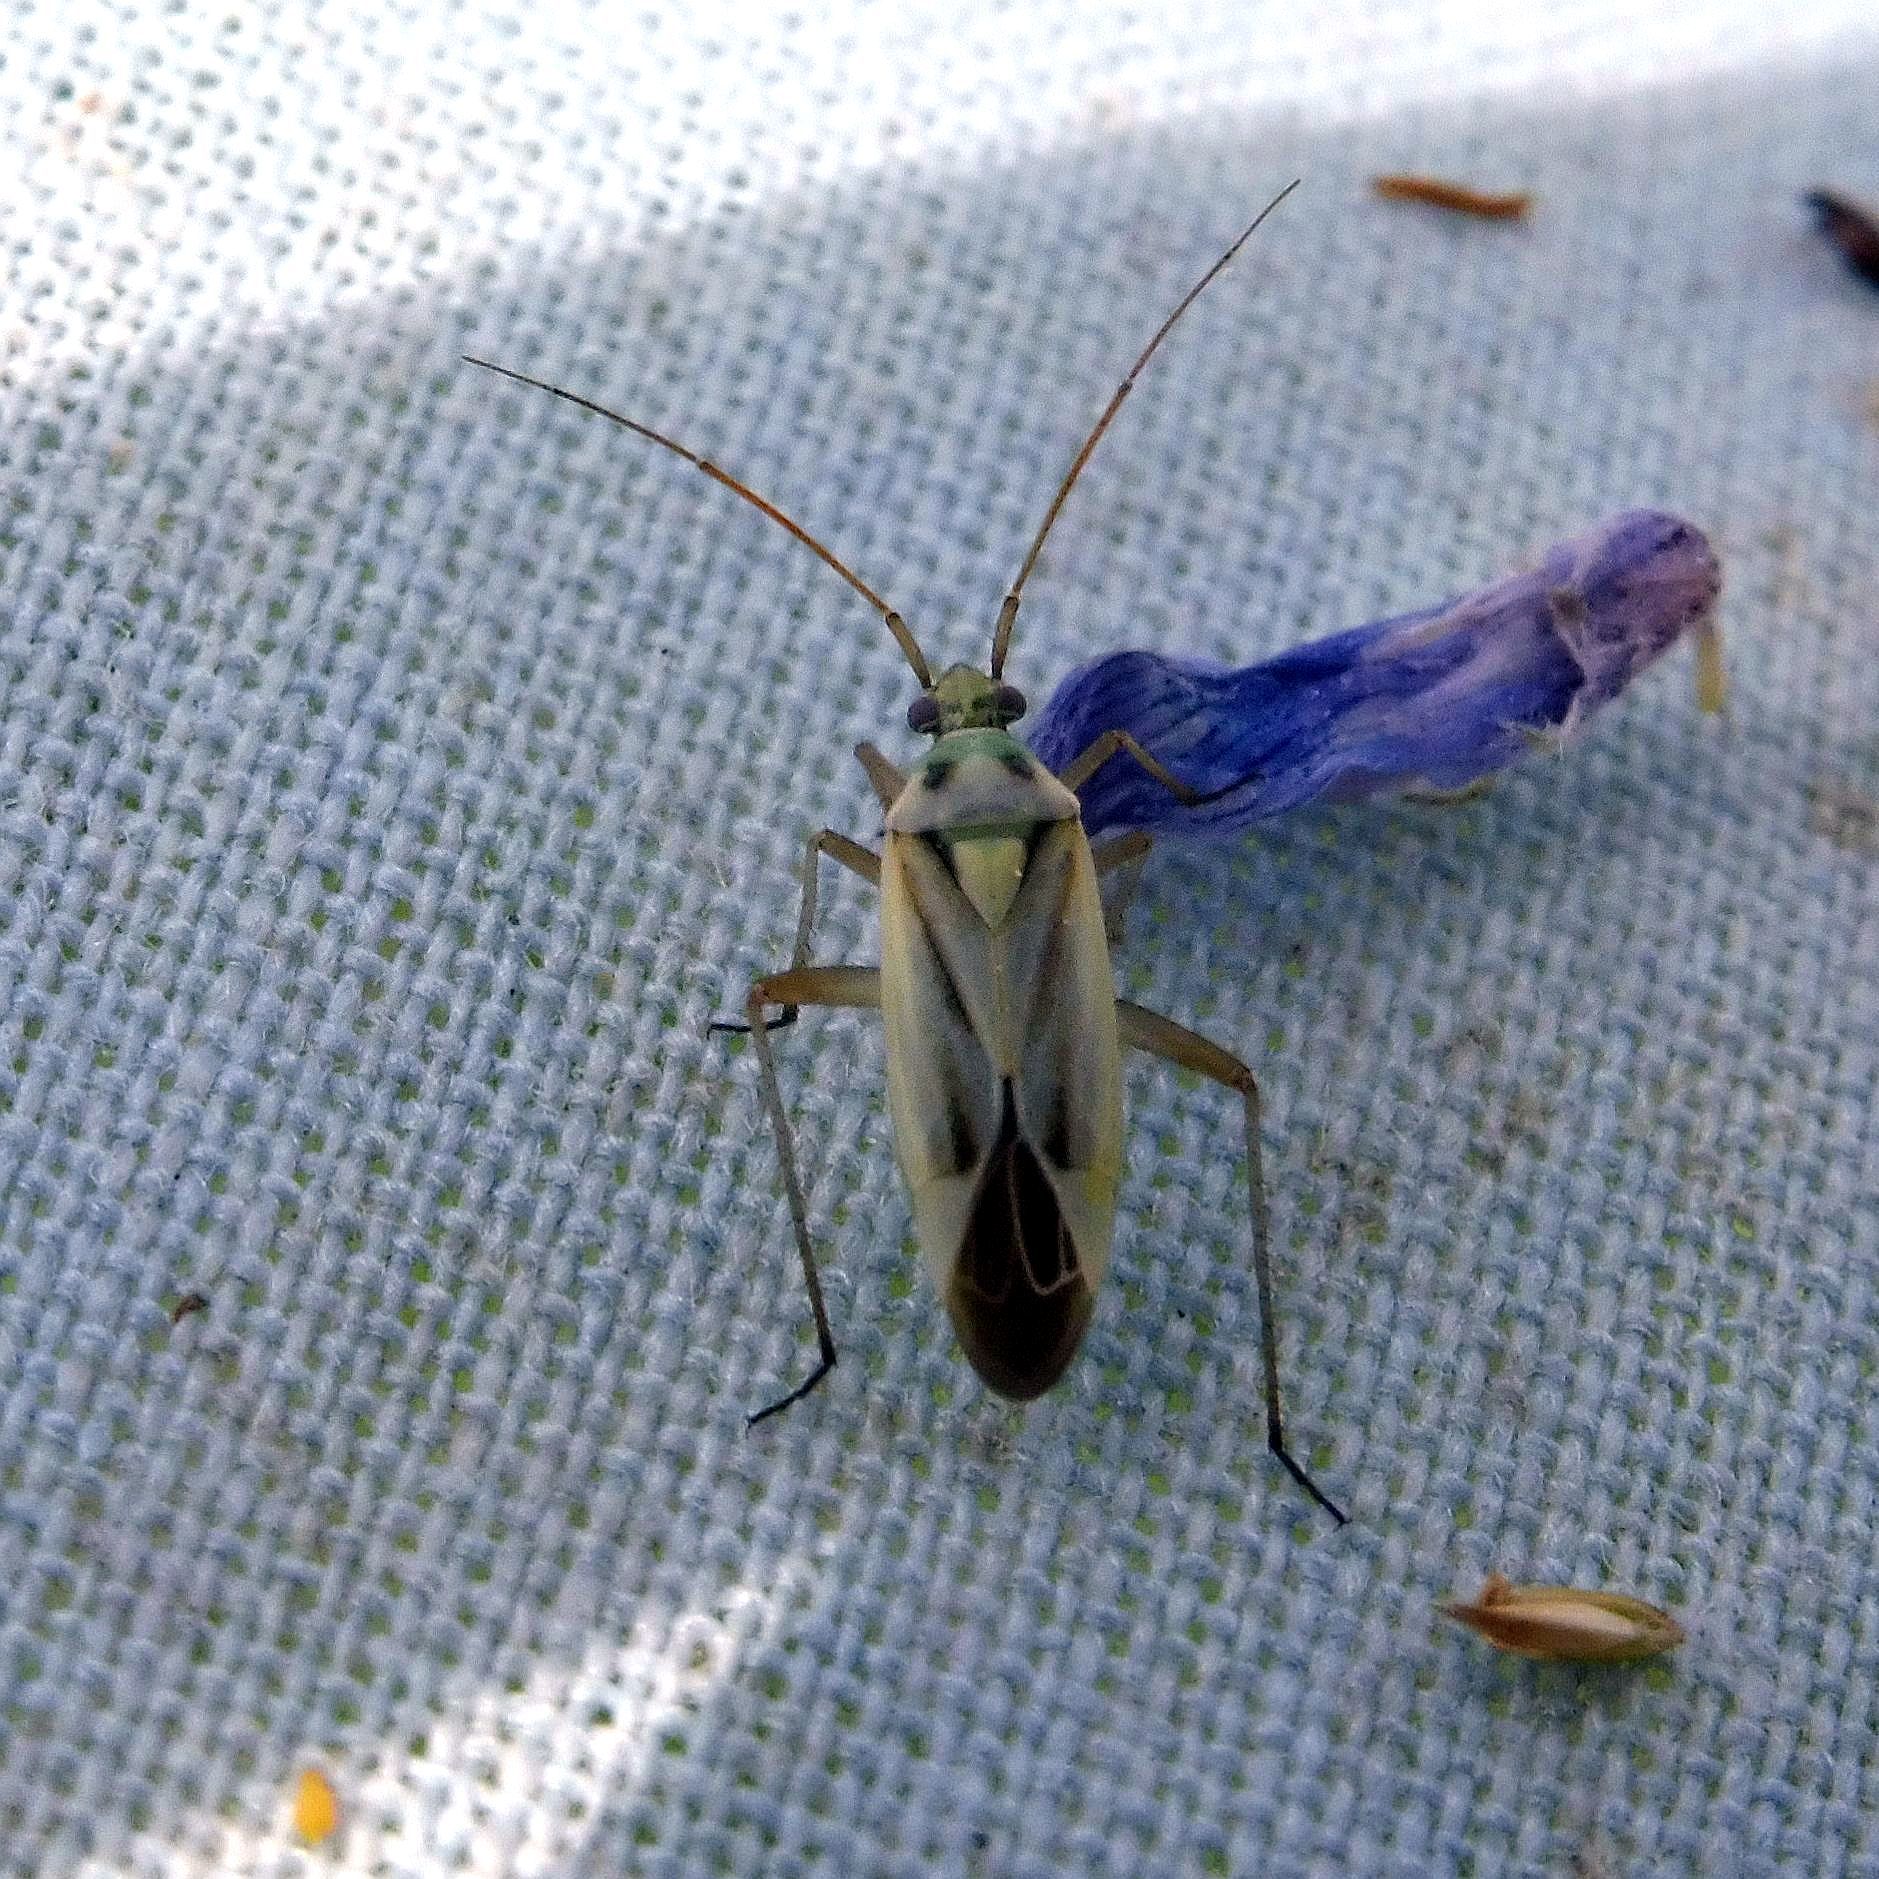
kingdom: Animalia
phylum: Arthropoda
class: Insecta
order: Hemiptera
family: Miridae
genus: Stenotus
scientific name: Stenotus binotatus
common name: Plant bug
